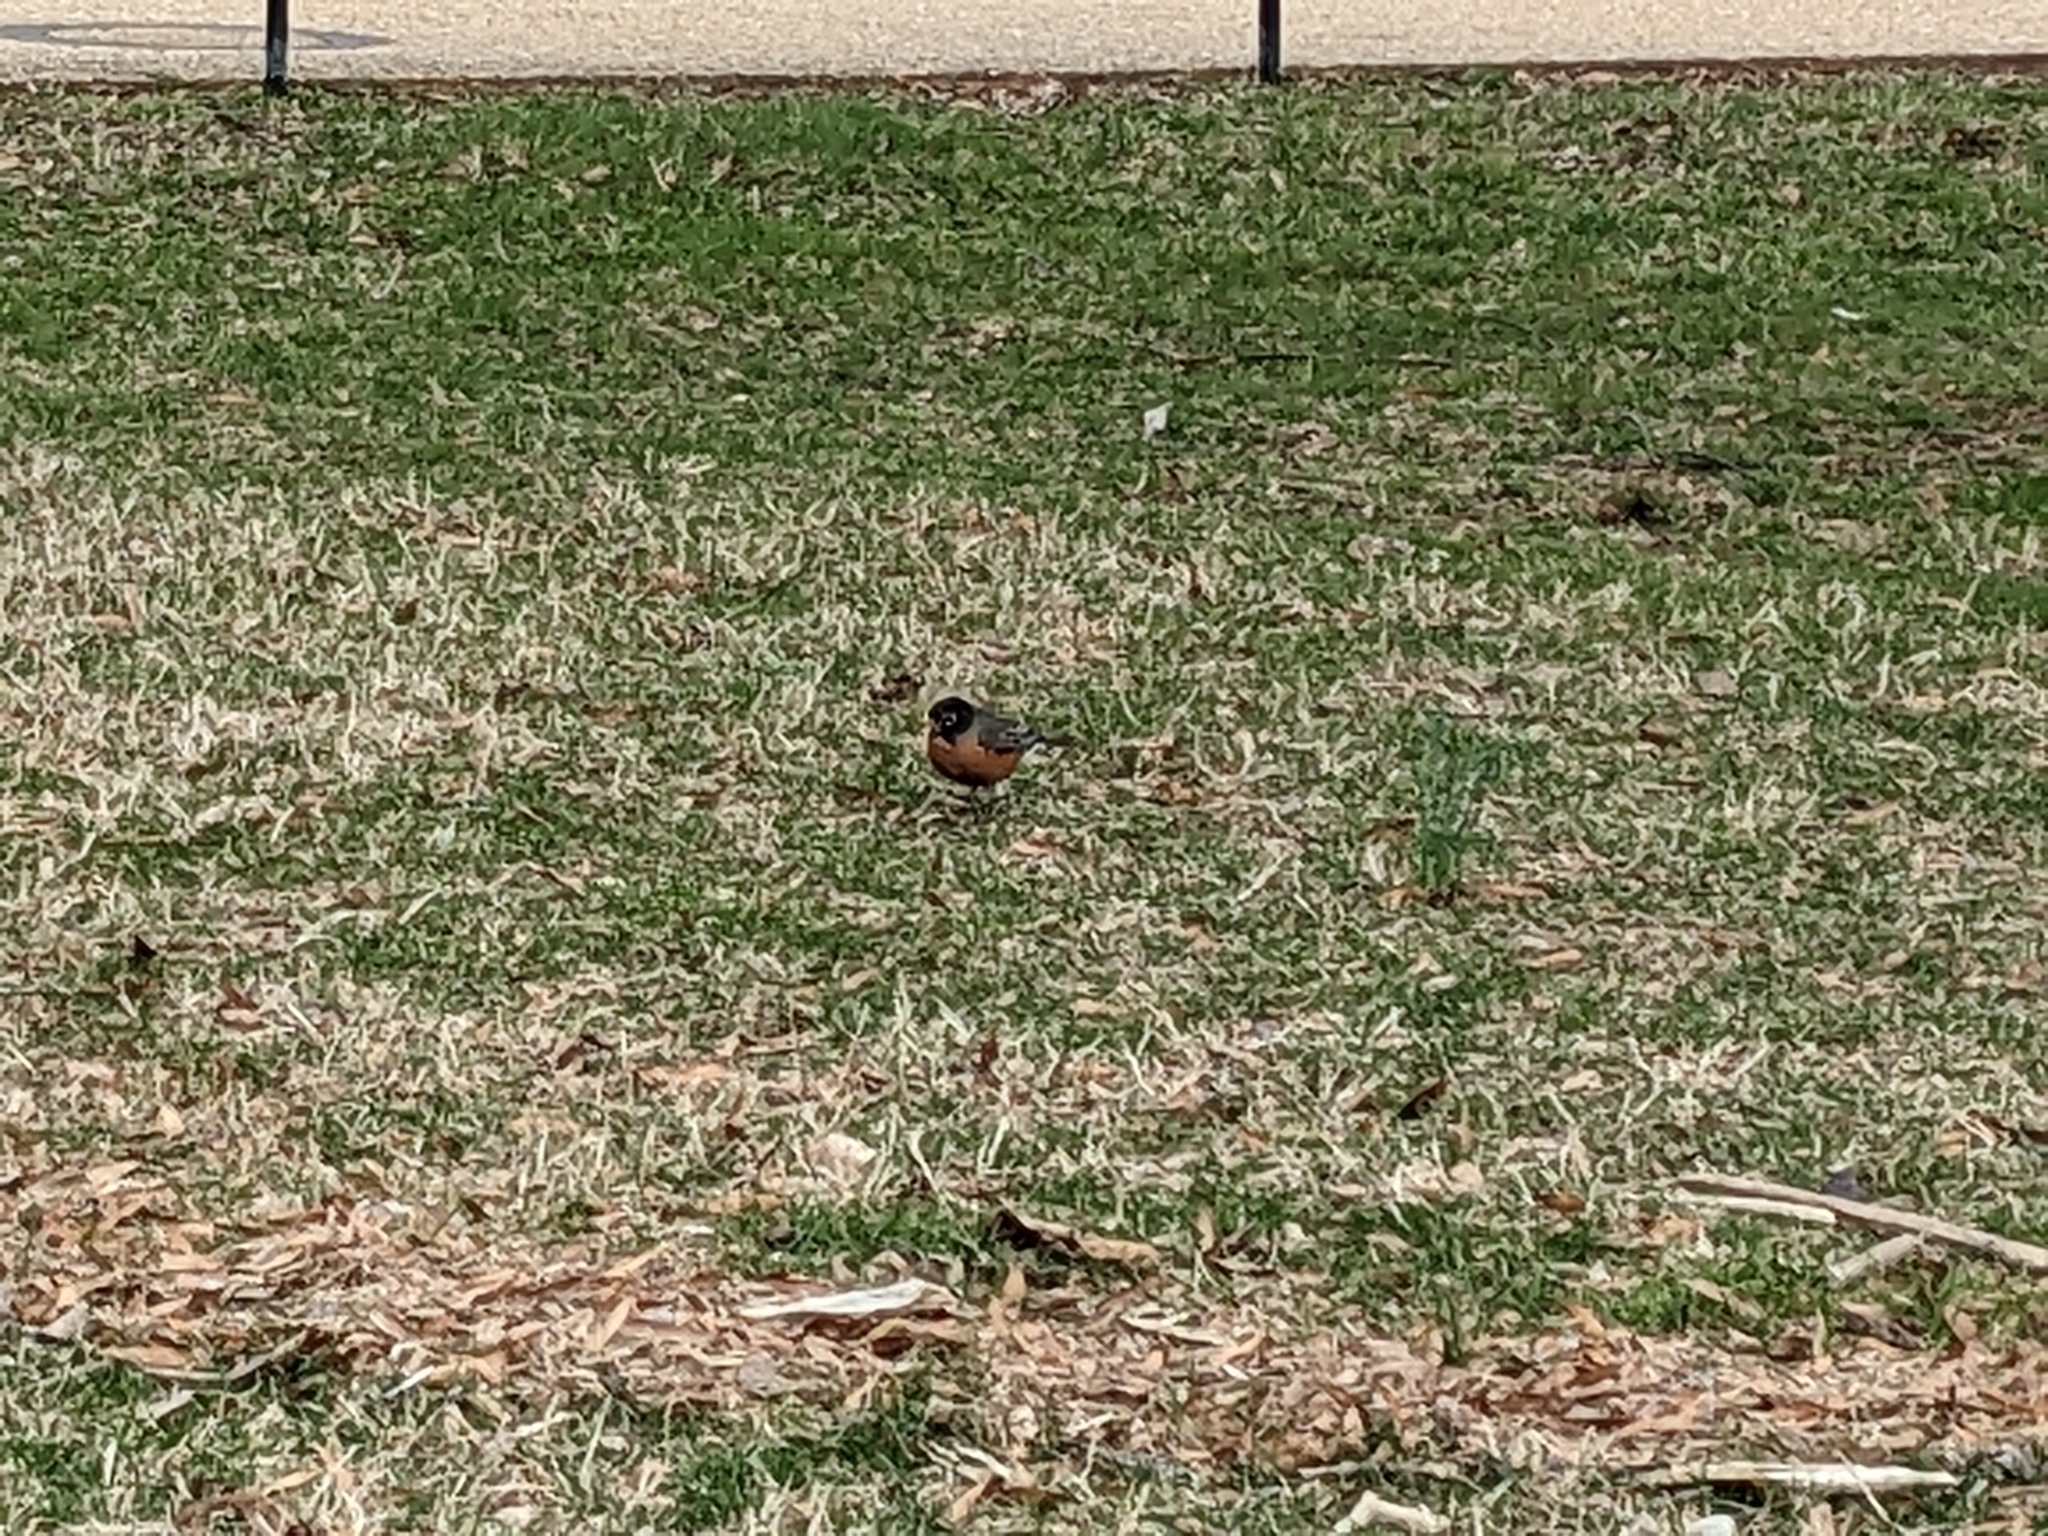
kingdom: Animalia
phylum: Chordata
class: Aves
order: Passeriformes
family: Turdidae
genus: Turdus
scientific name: Turdus migratorius
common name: American robin
